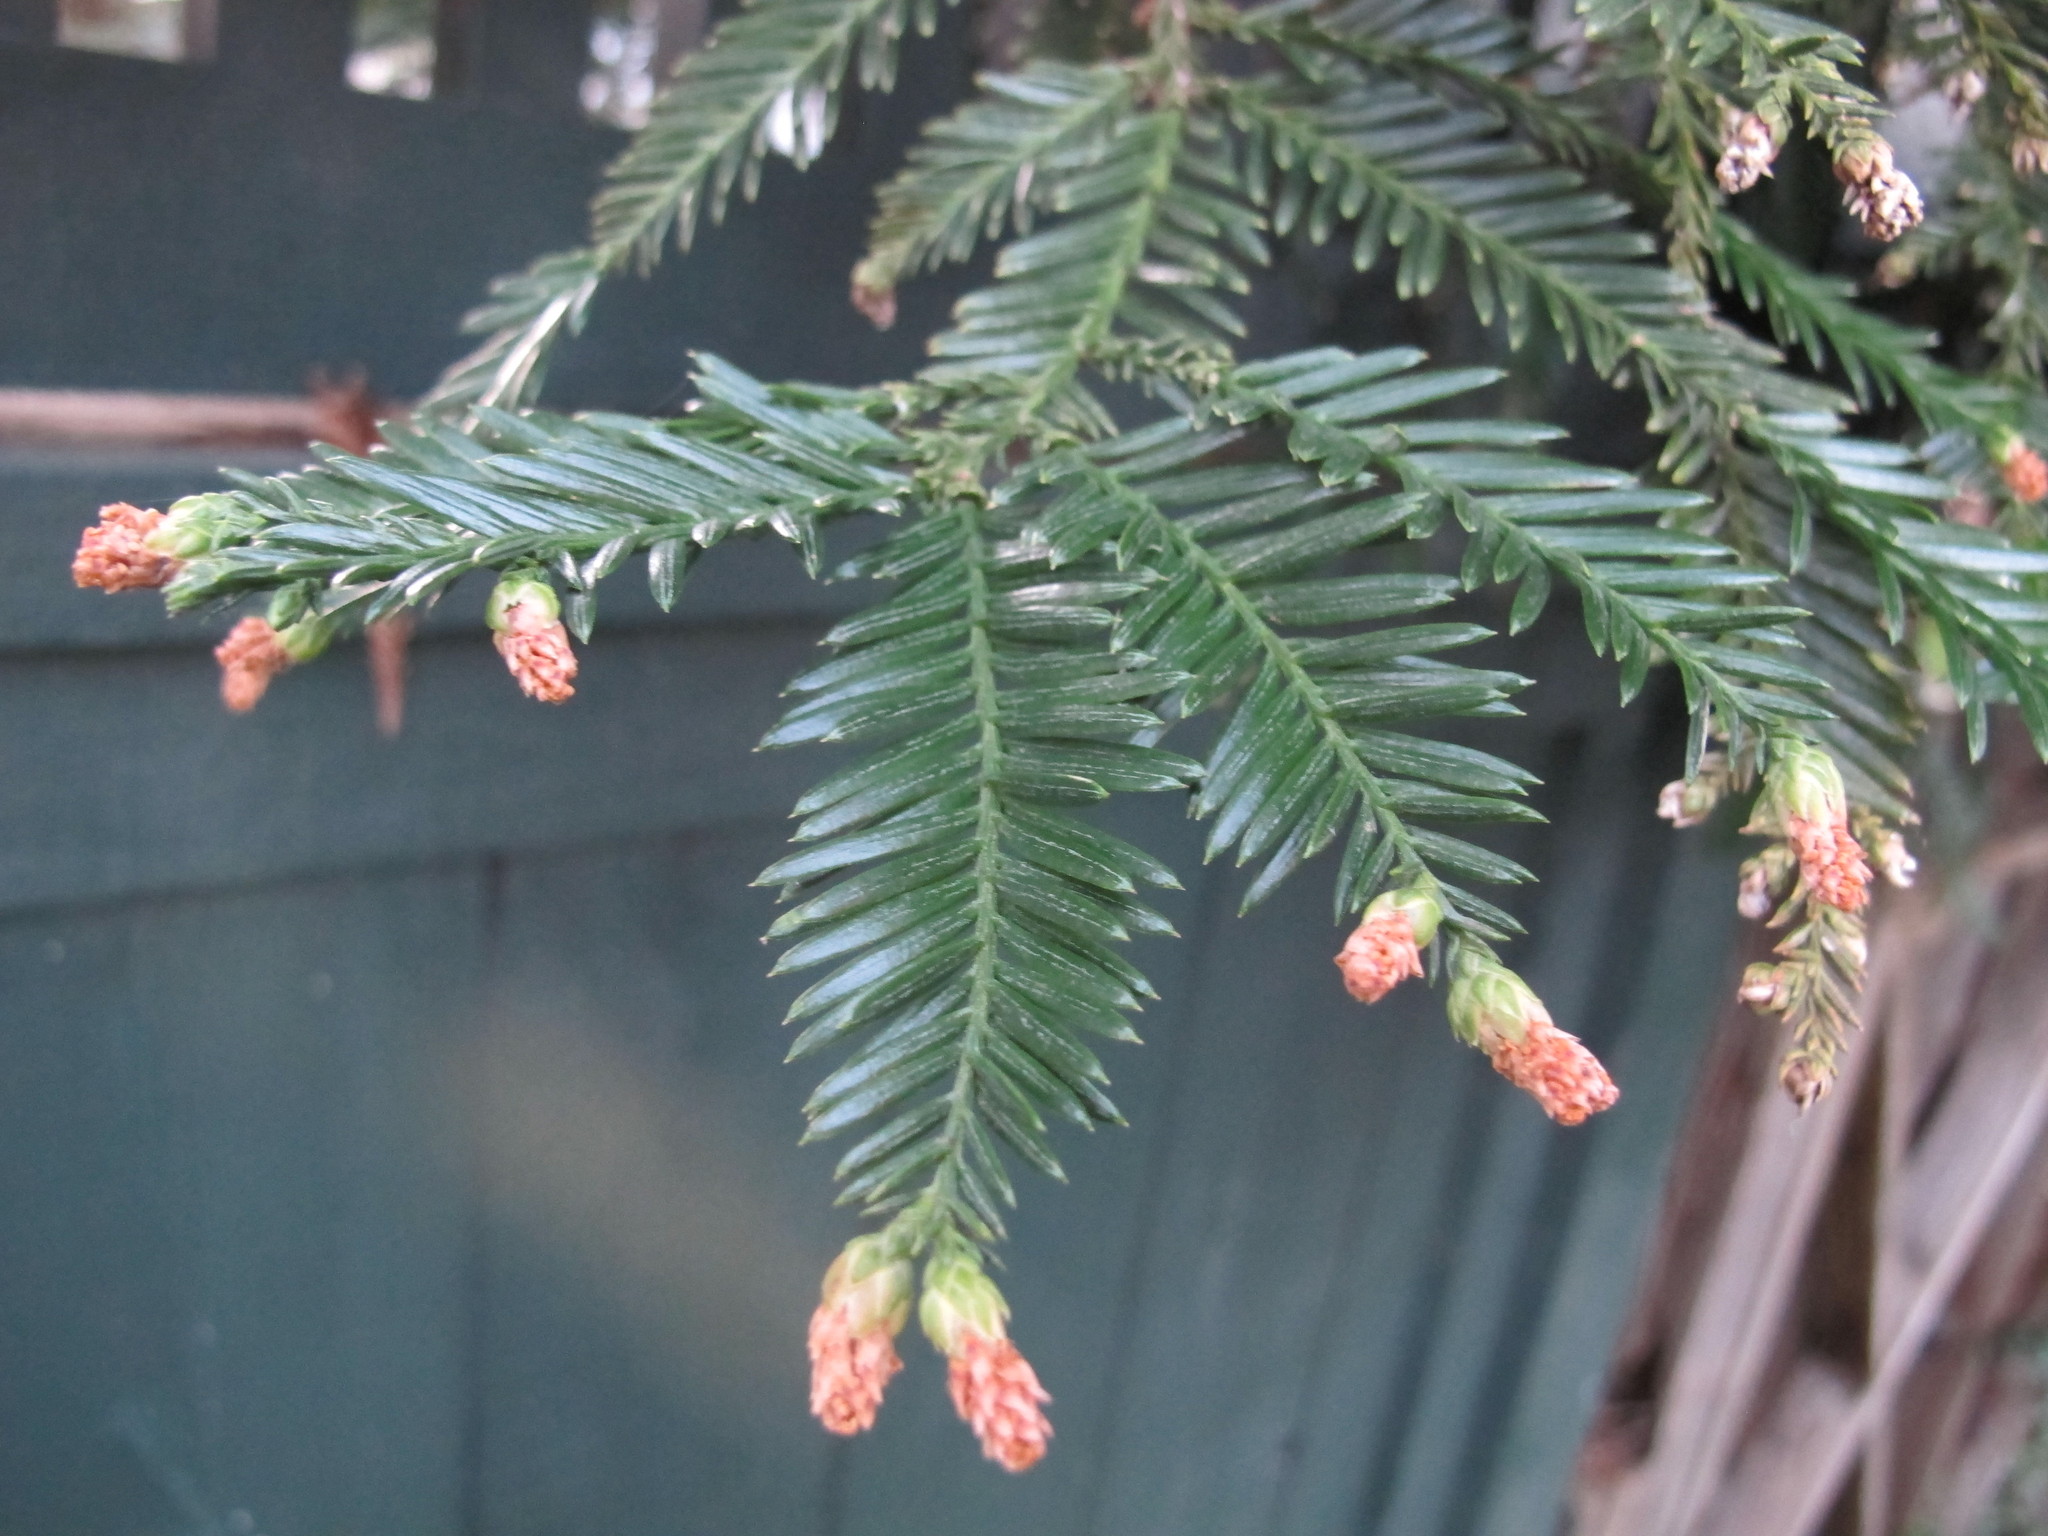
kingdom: Plantae
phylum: Tracheophyta
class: Pinopsida
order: Pinales
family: Cupressaceae
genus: Sequoia
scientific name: Sequoia sempervirens
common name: Coast redwood
